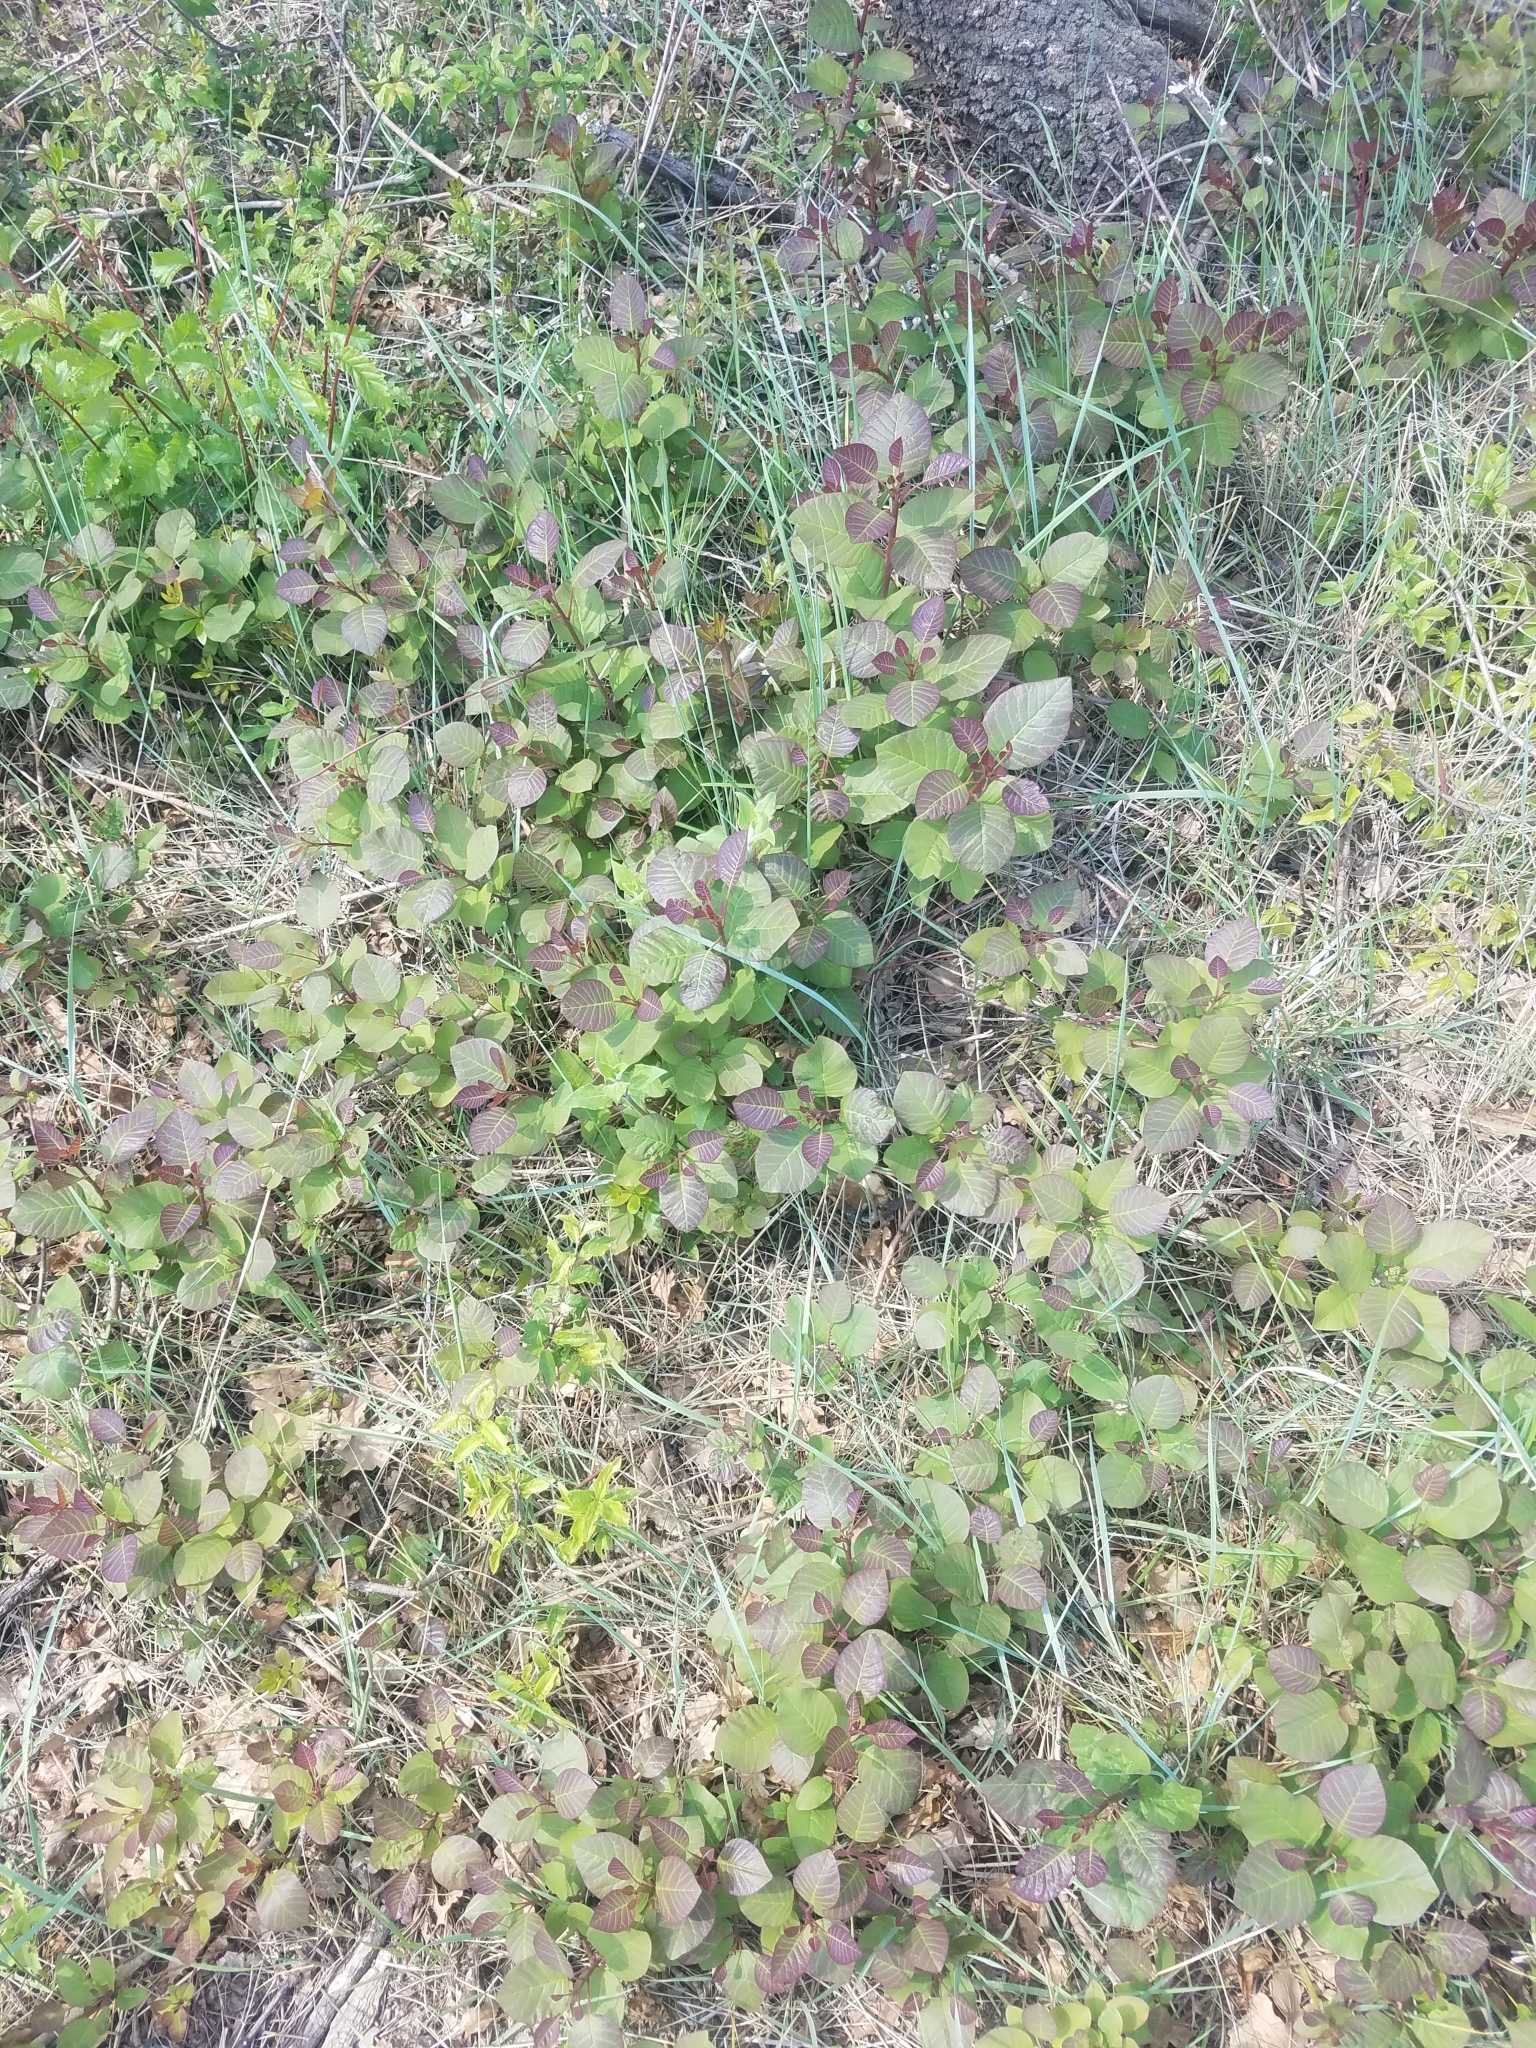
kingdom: Plantae
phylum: Tracheophyta
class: Magnoliopsida
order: Sapindales
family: Anacardiaceae
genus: Cotinus
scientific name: Cotinus coggygria
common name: Smoke-tree
